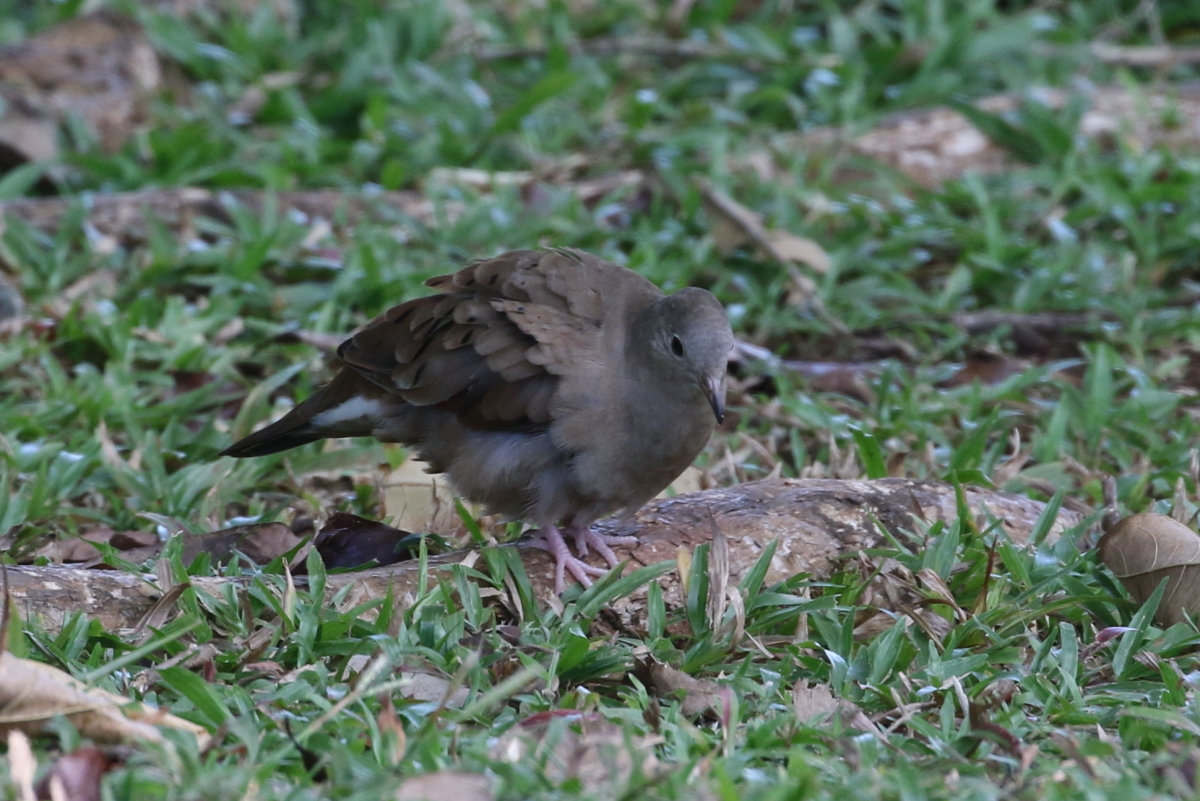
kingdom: Animalia
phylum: Chordata
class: Aves
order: Columbiformes
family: Columbidae
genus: Columbina
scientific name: Columbina talpacoti
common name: Ruddy ground dove
